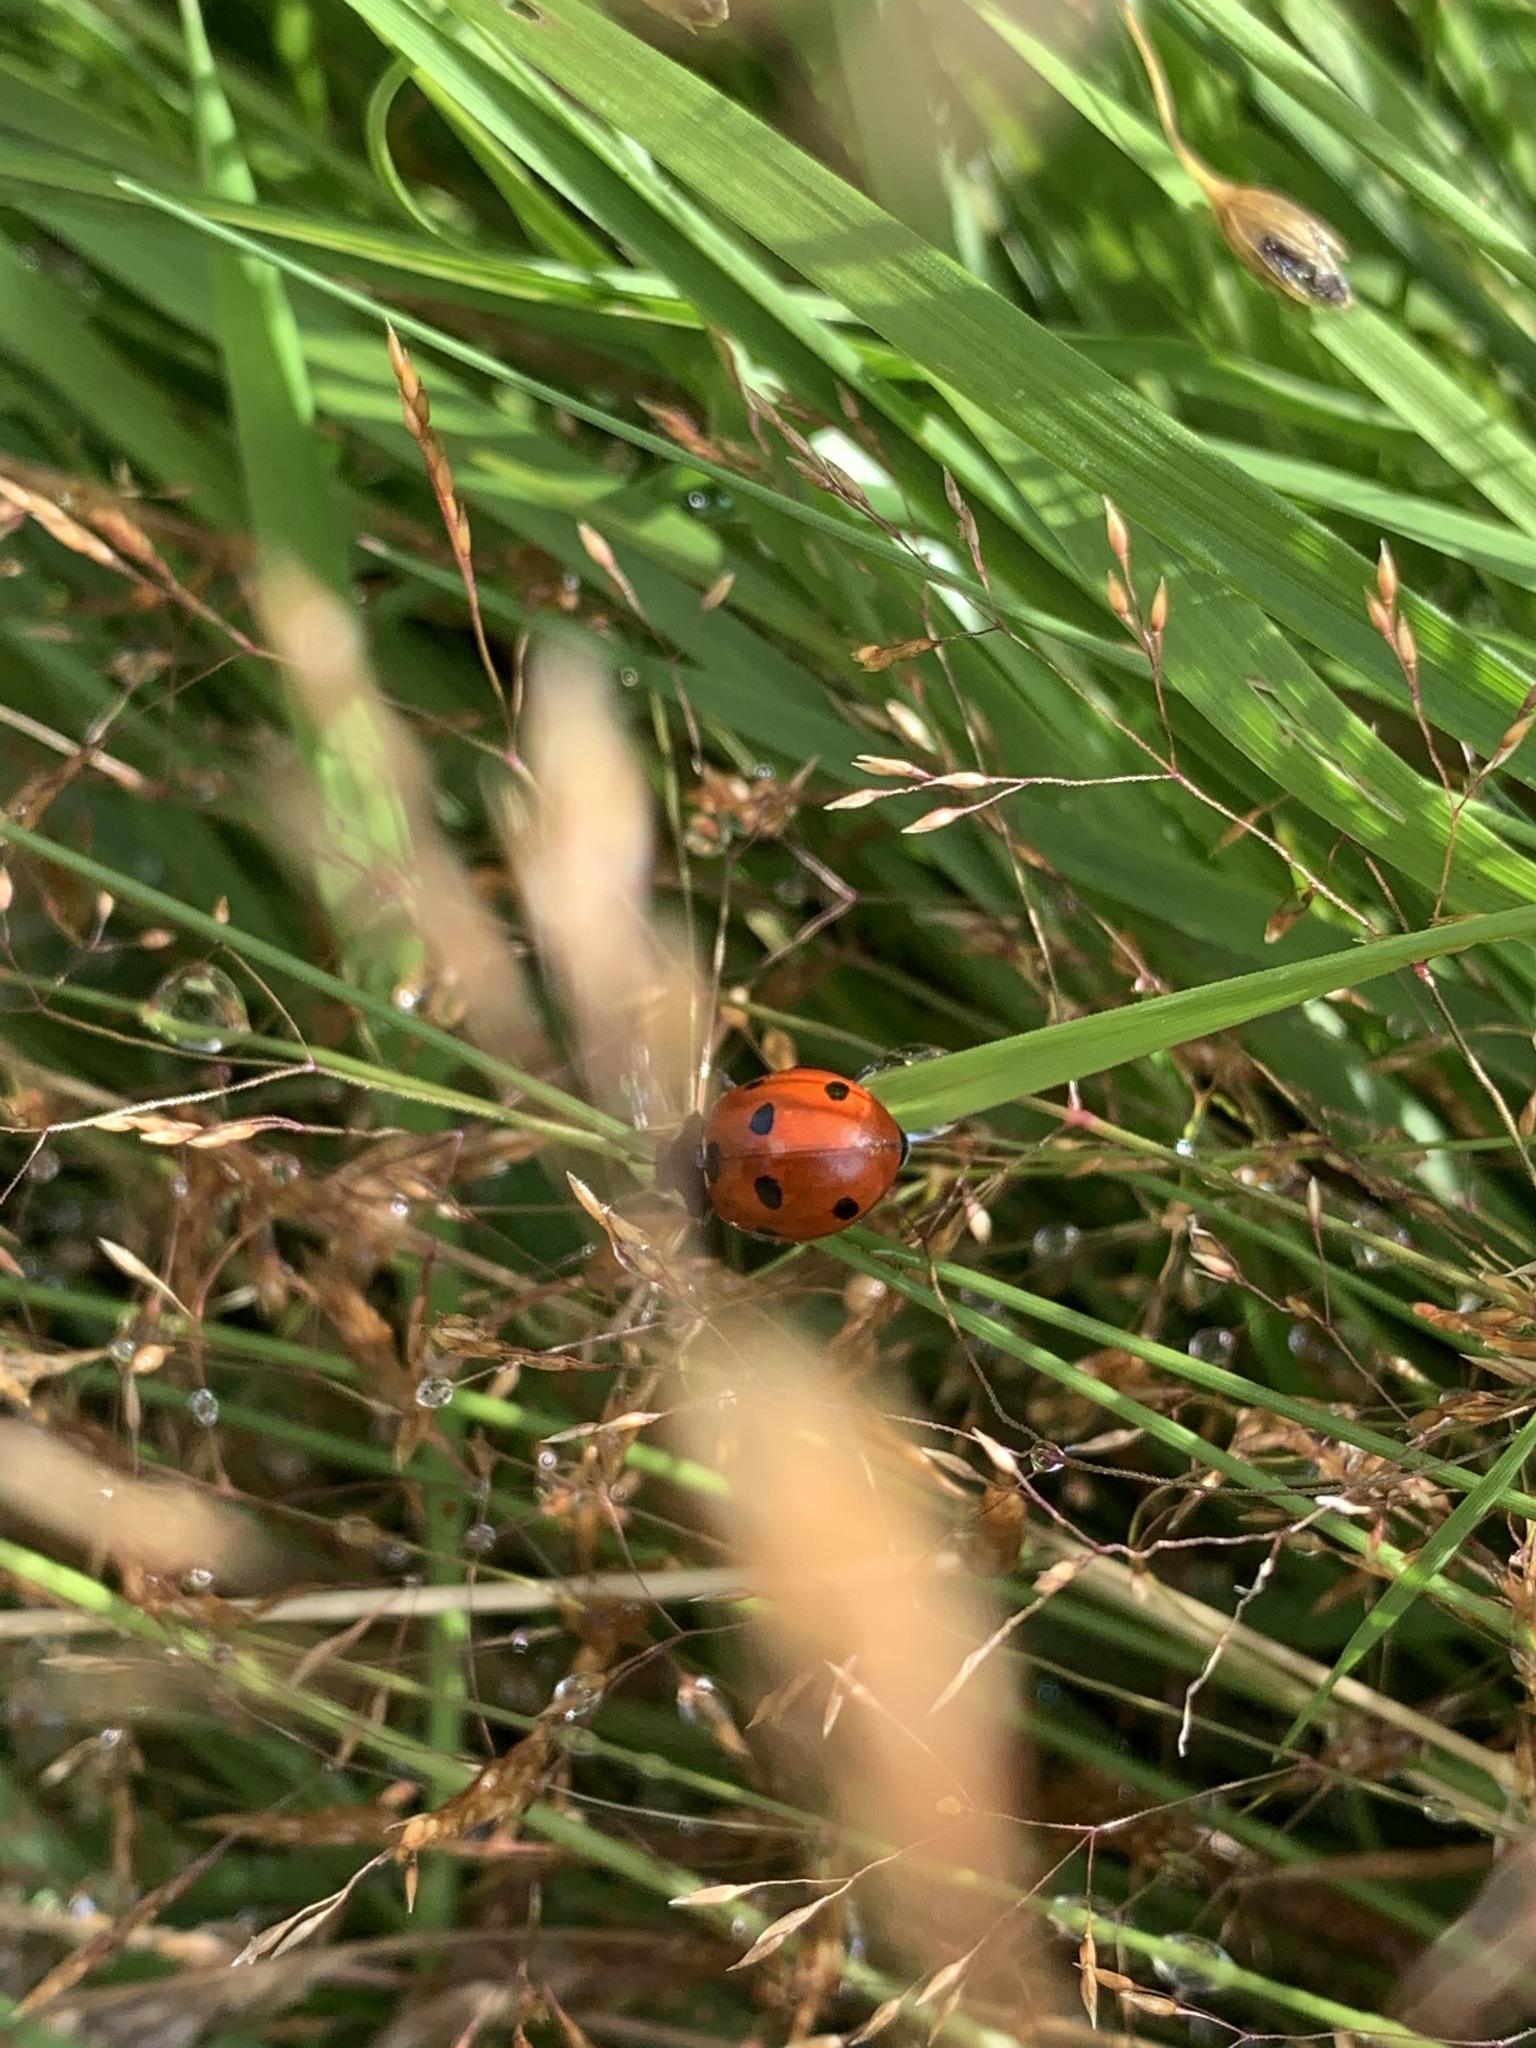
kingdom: Animalia
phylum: Arthropoda
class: Insecta
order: Coleoptera
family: Coccinellidae
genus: Coccinella
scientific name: Coccinella septempunctata
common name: Sevenspotted lady beetle
